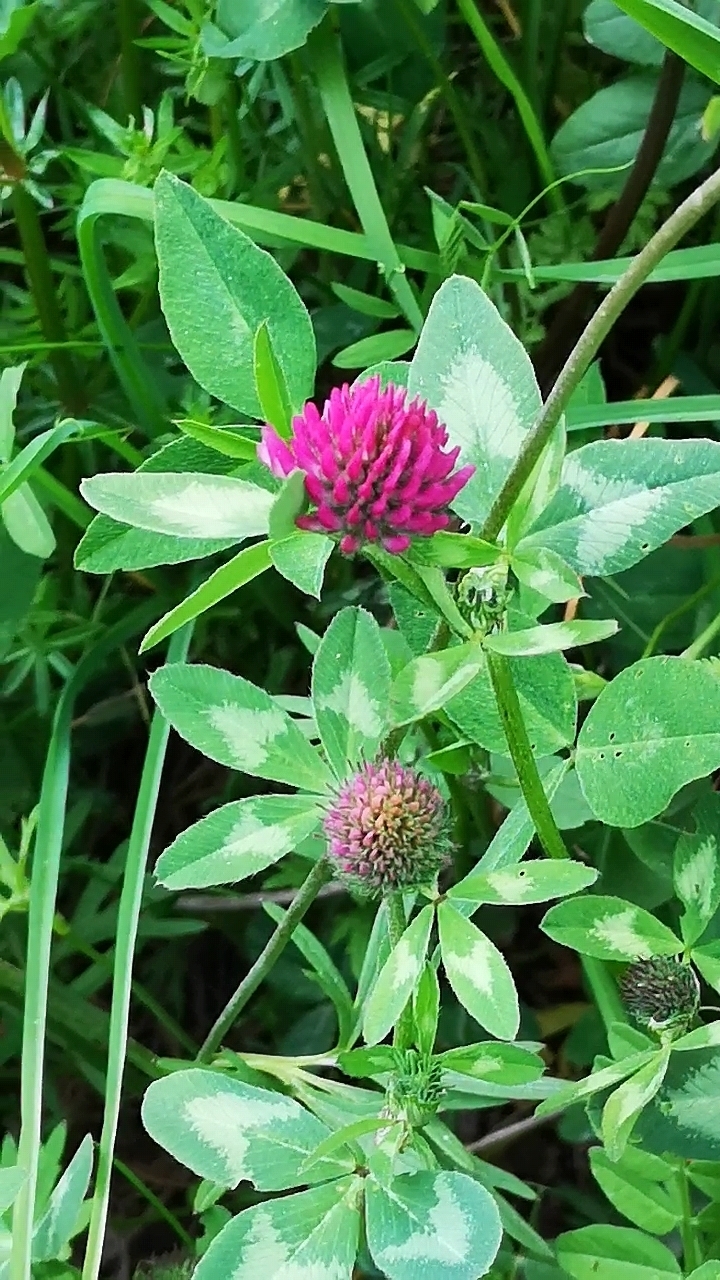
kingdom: Plantae
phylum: Tracheophyta
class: Magnoliopsida
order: Fabales
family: Fabaceae
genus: Trifolium
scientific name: Trifolium pratense
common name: Red clover
